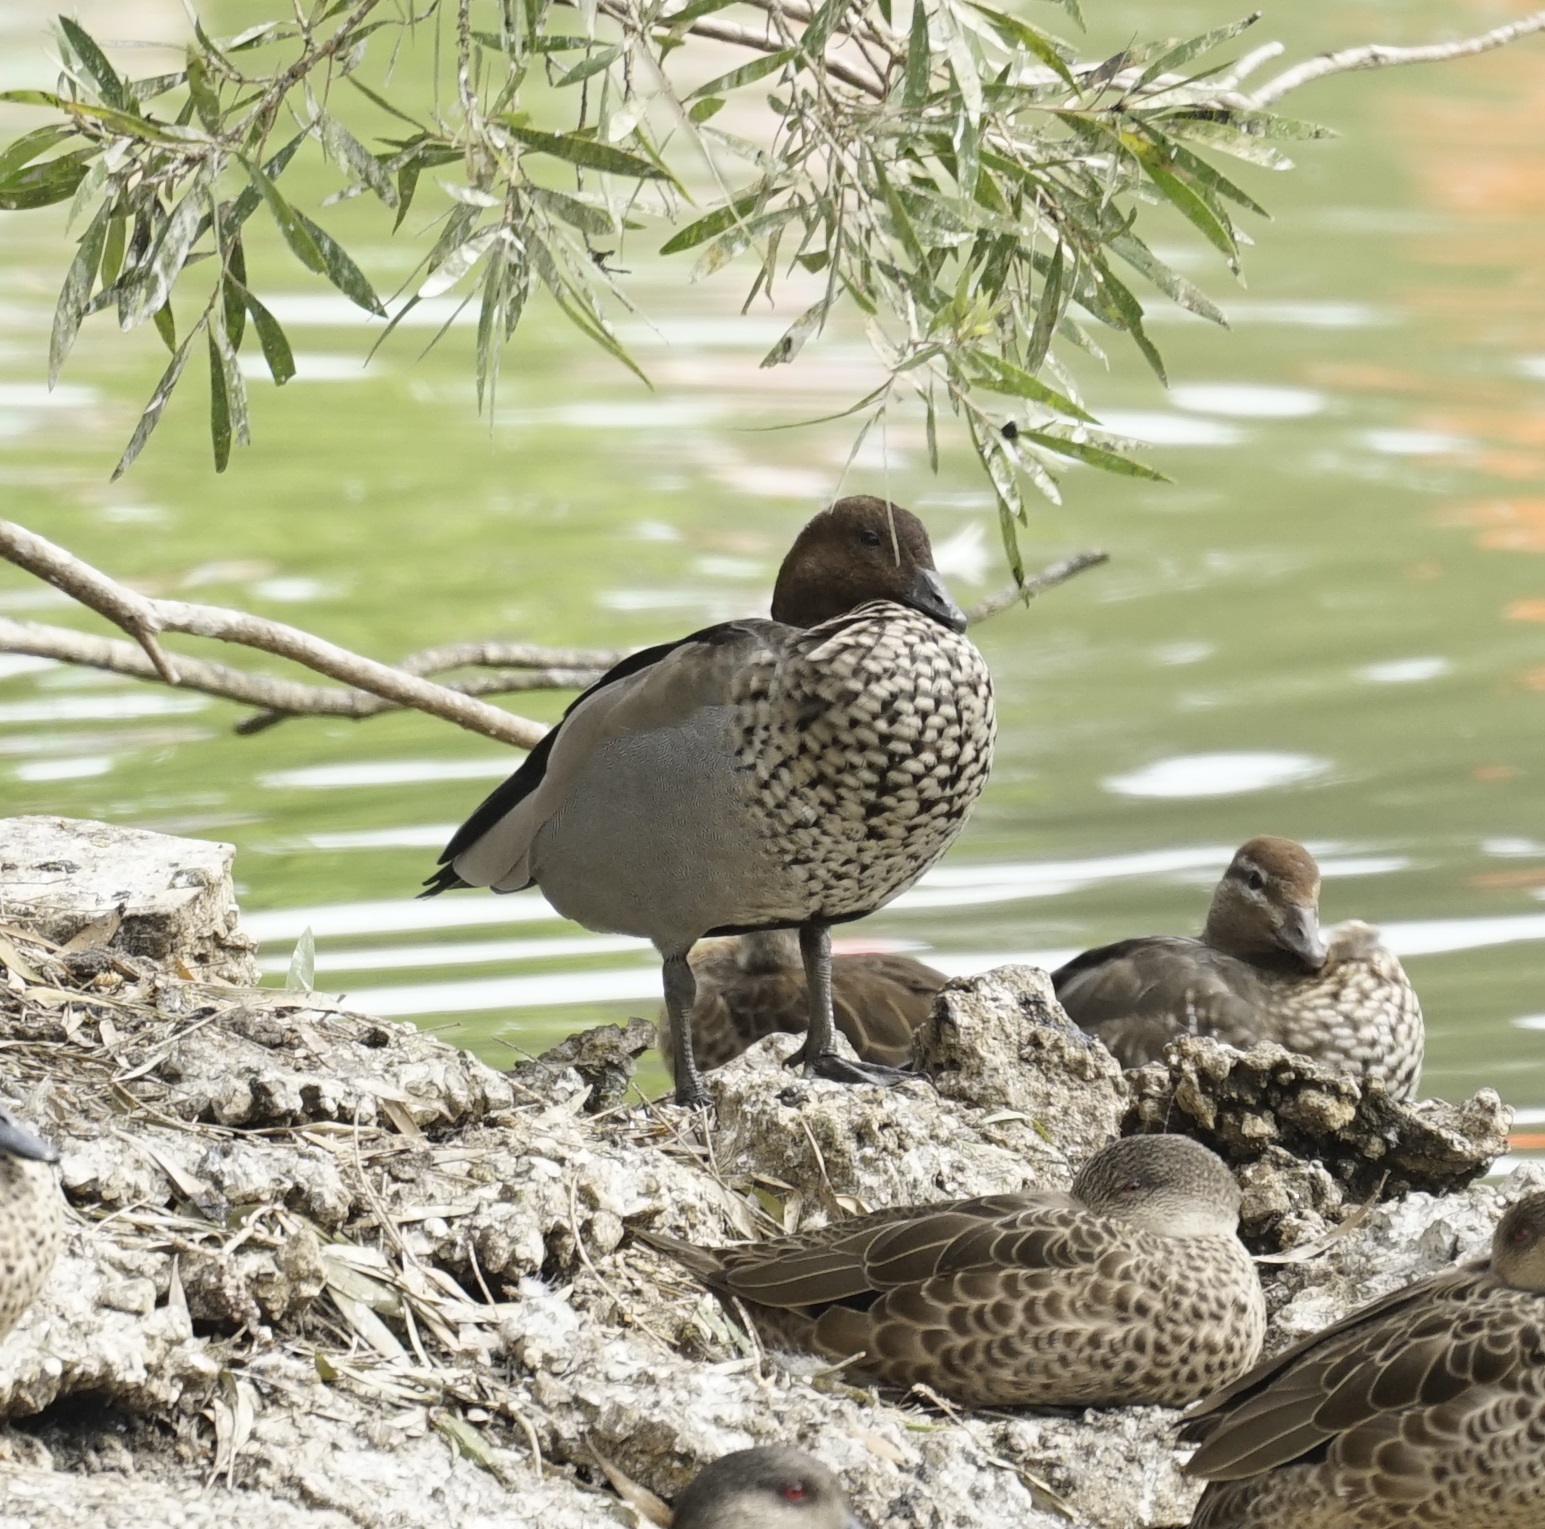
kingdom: Animalia
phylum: Chordata
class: Aves
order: Anseriformes
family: Anatidae
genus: Chenonetta
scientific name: Chenonetta jubata
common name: Maned duck
